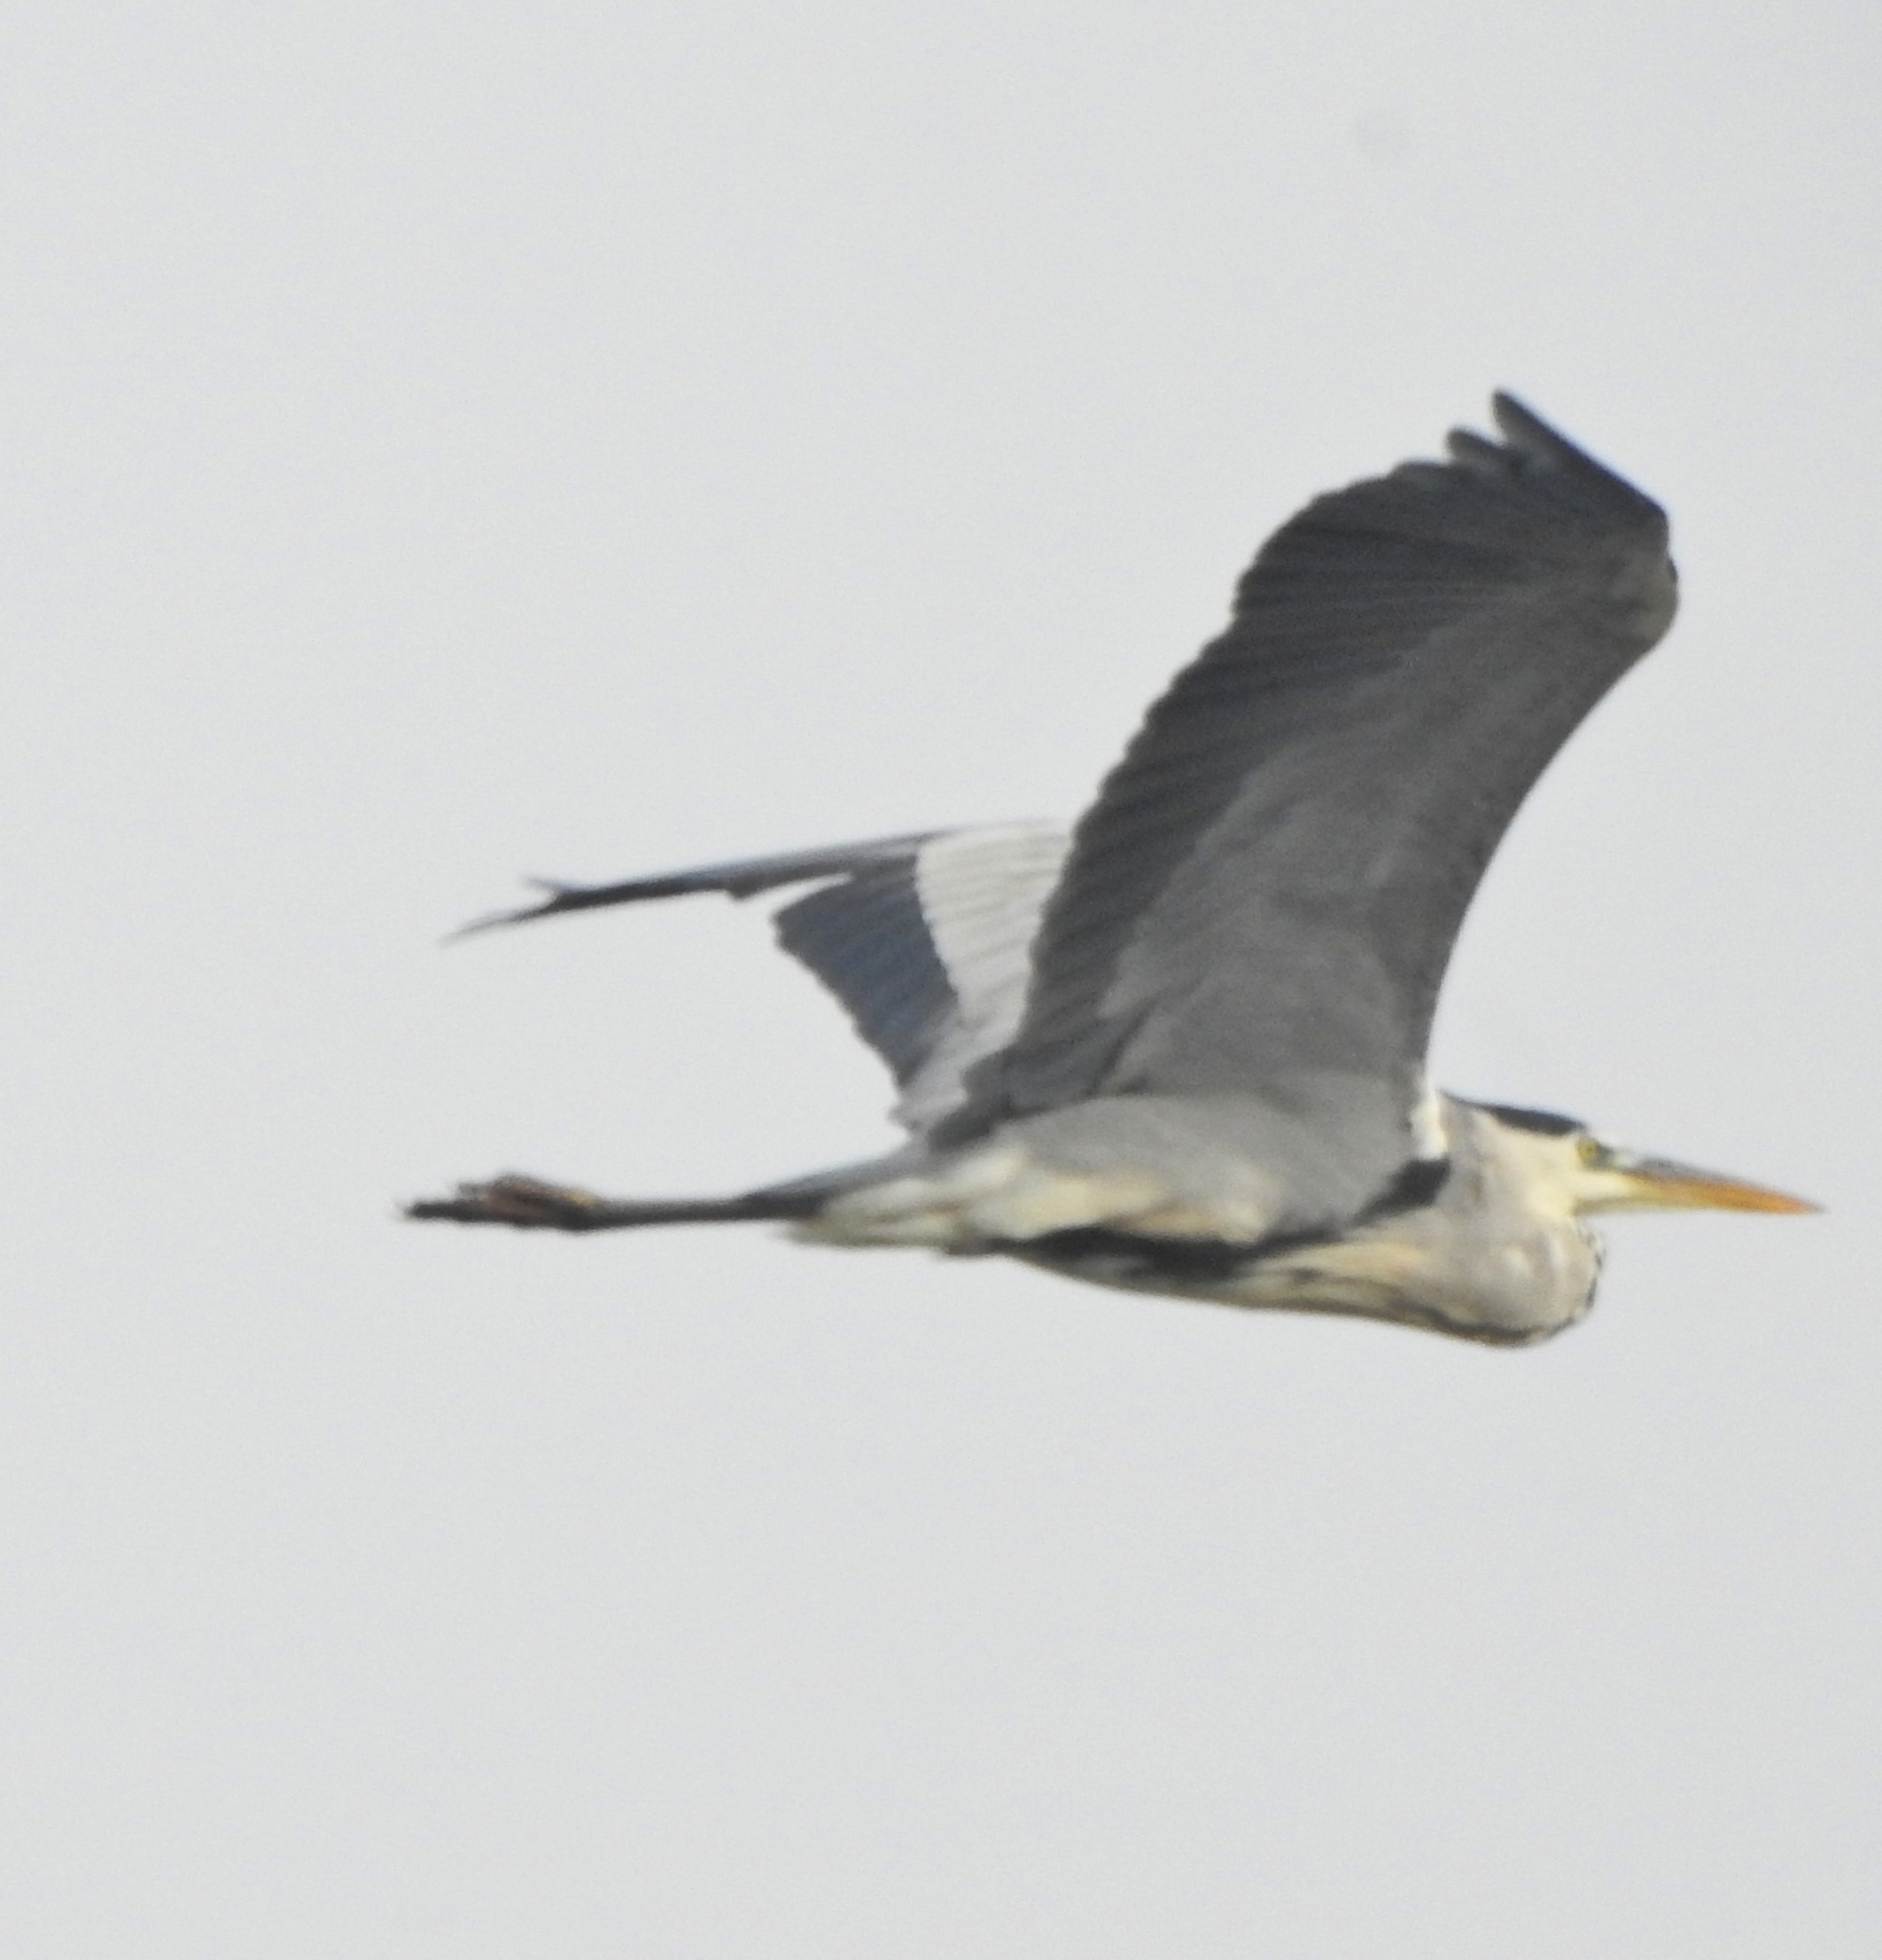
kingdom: Animalia
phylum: Chordata
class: Aves
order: Pelecaniformes
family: Ardeidae
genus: Ardea
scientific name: Ardea cinerea
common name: Grey heron
